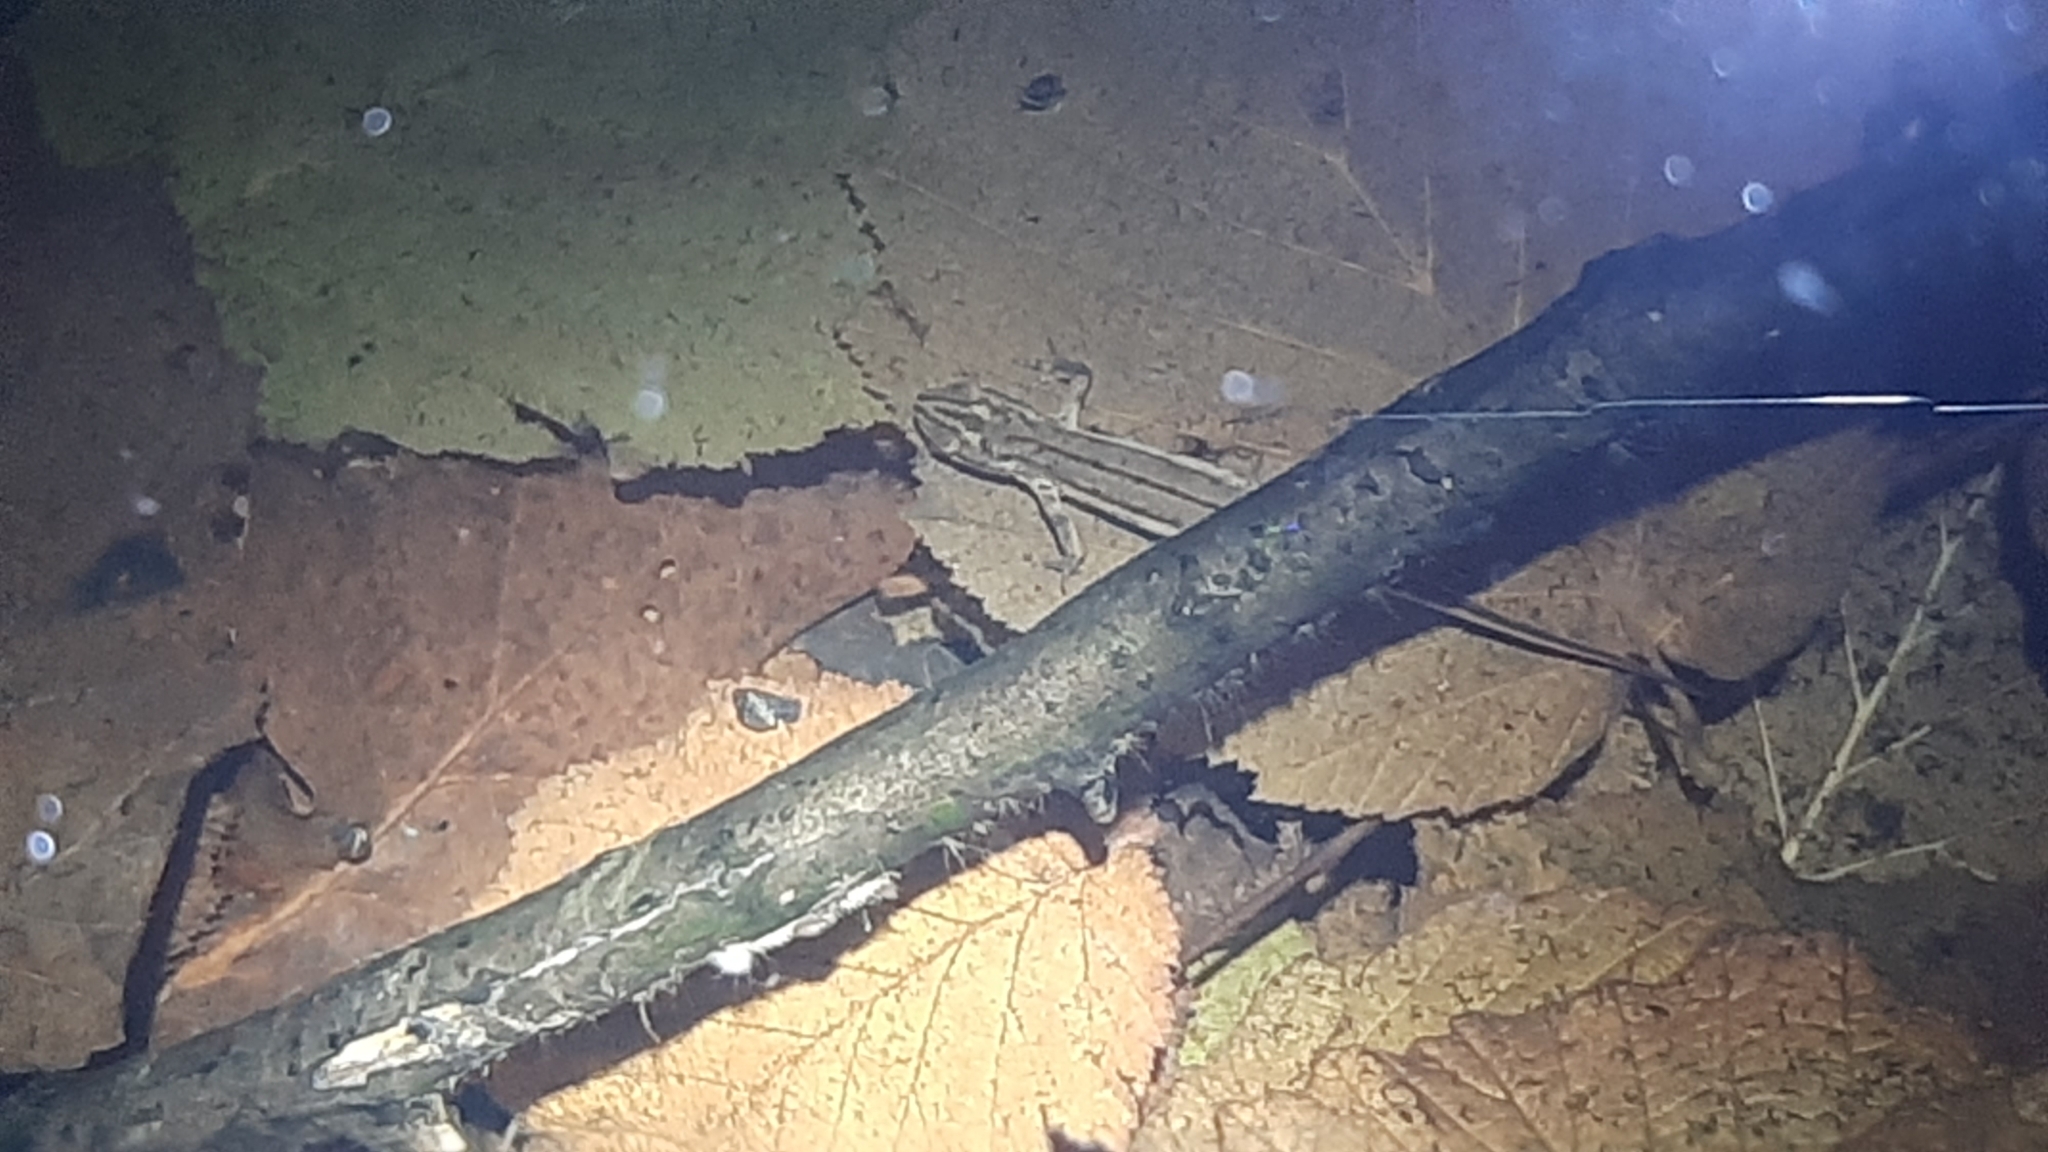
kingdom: Animalia
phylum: Chordata
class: Amphibia
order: Caudata
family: Salamandridae
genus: Lissotriton
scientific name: Lissotriton vulgaris
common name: Smooth newt
